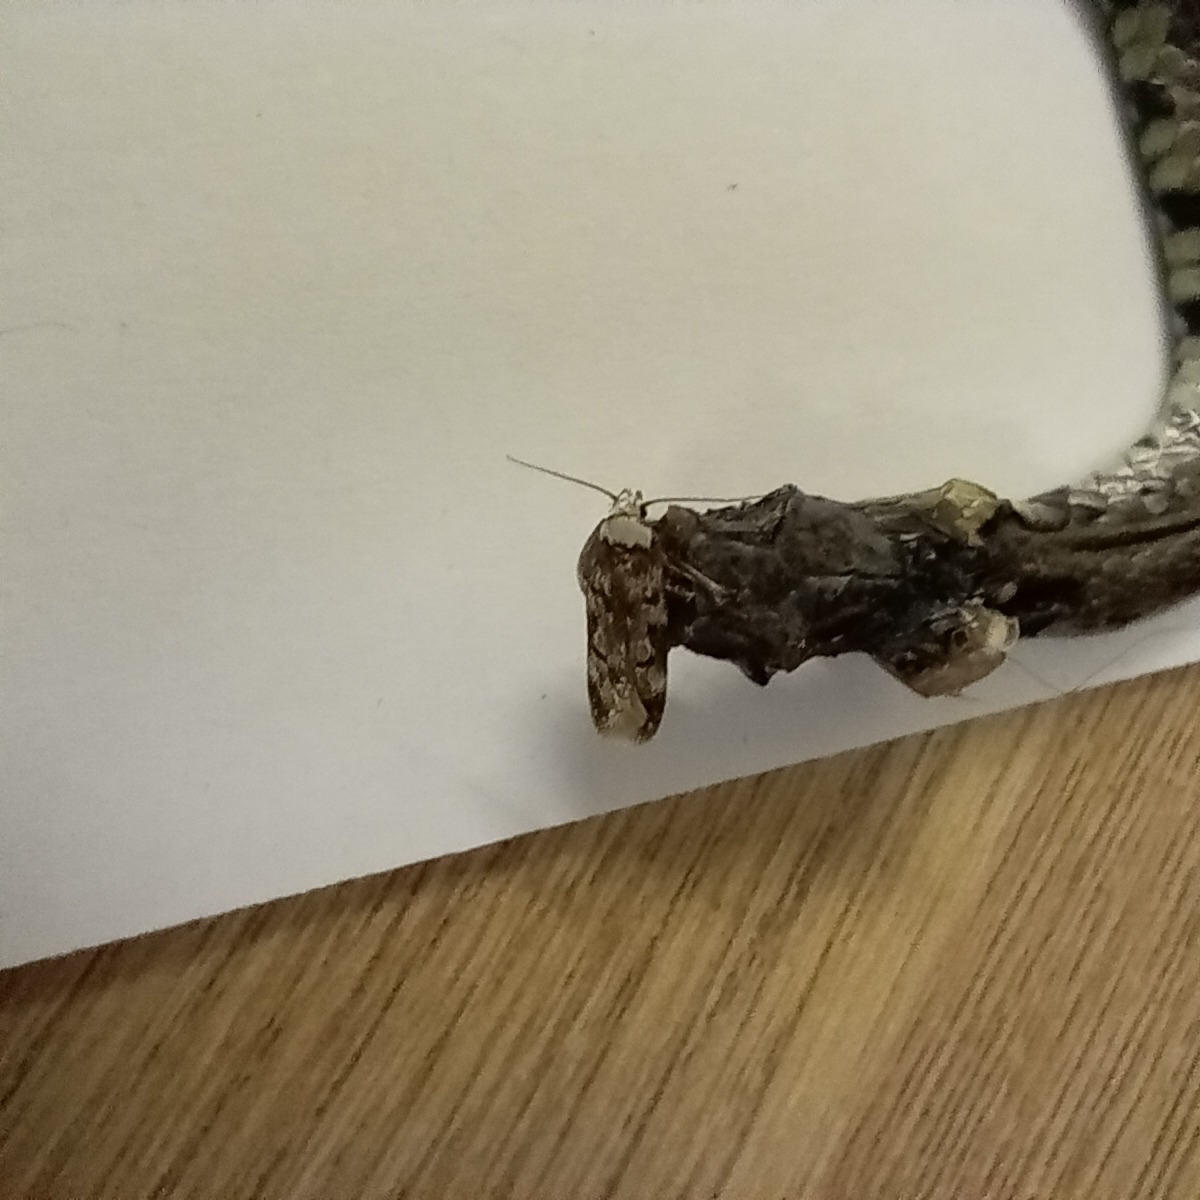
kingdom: Animalia
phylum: Arthropoda
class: Insecta
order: Lepidoptera
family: Oecophoridae
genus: Endrosis
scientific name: Endrosis sarcitrella
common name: White-shouldered house moth
